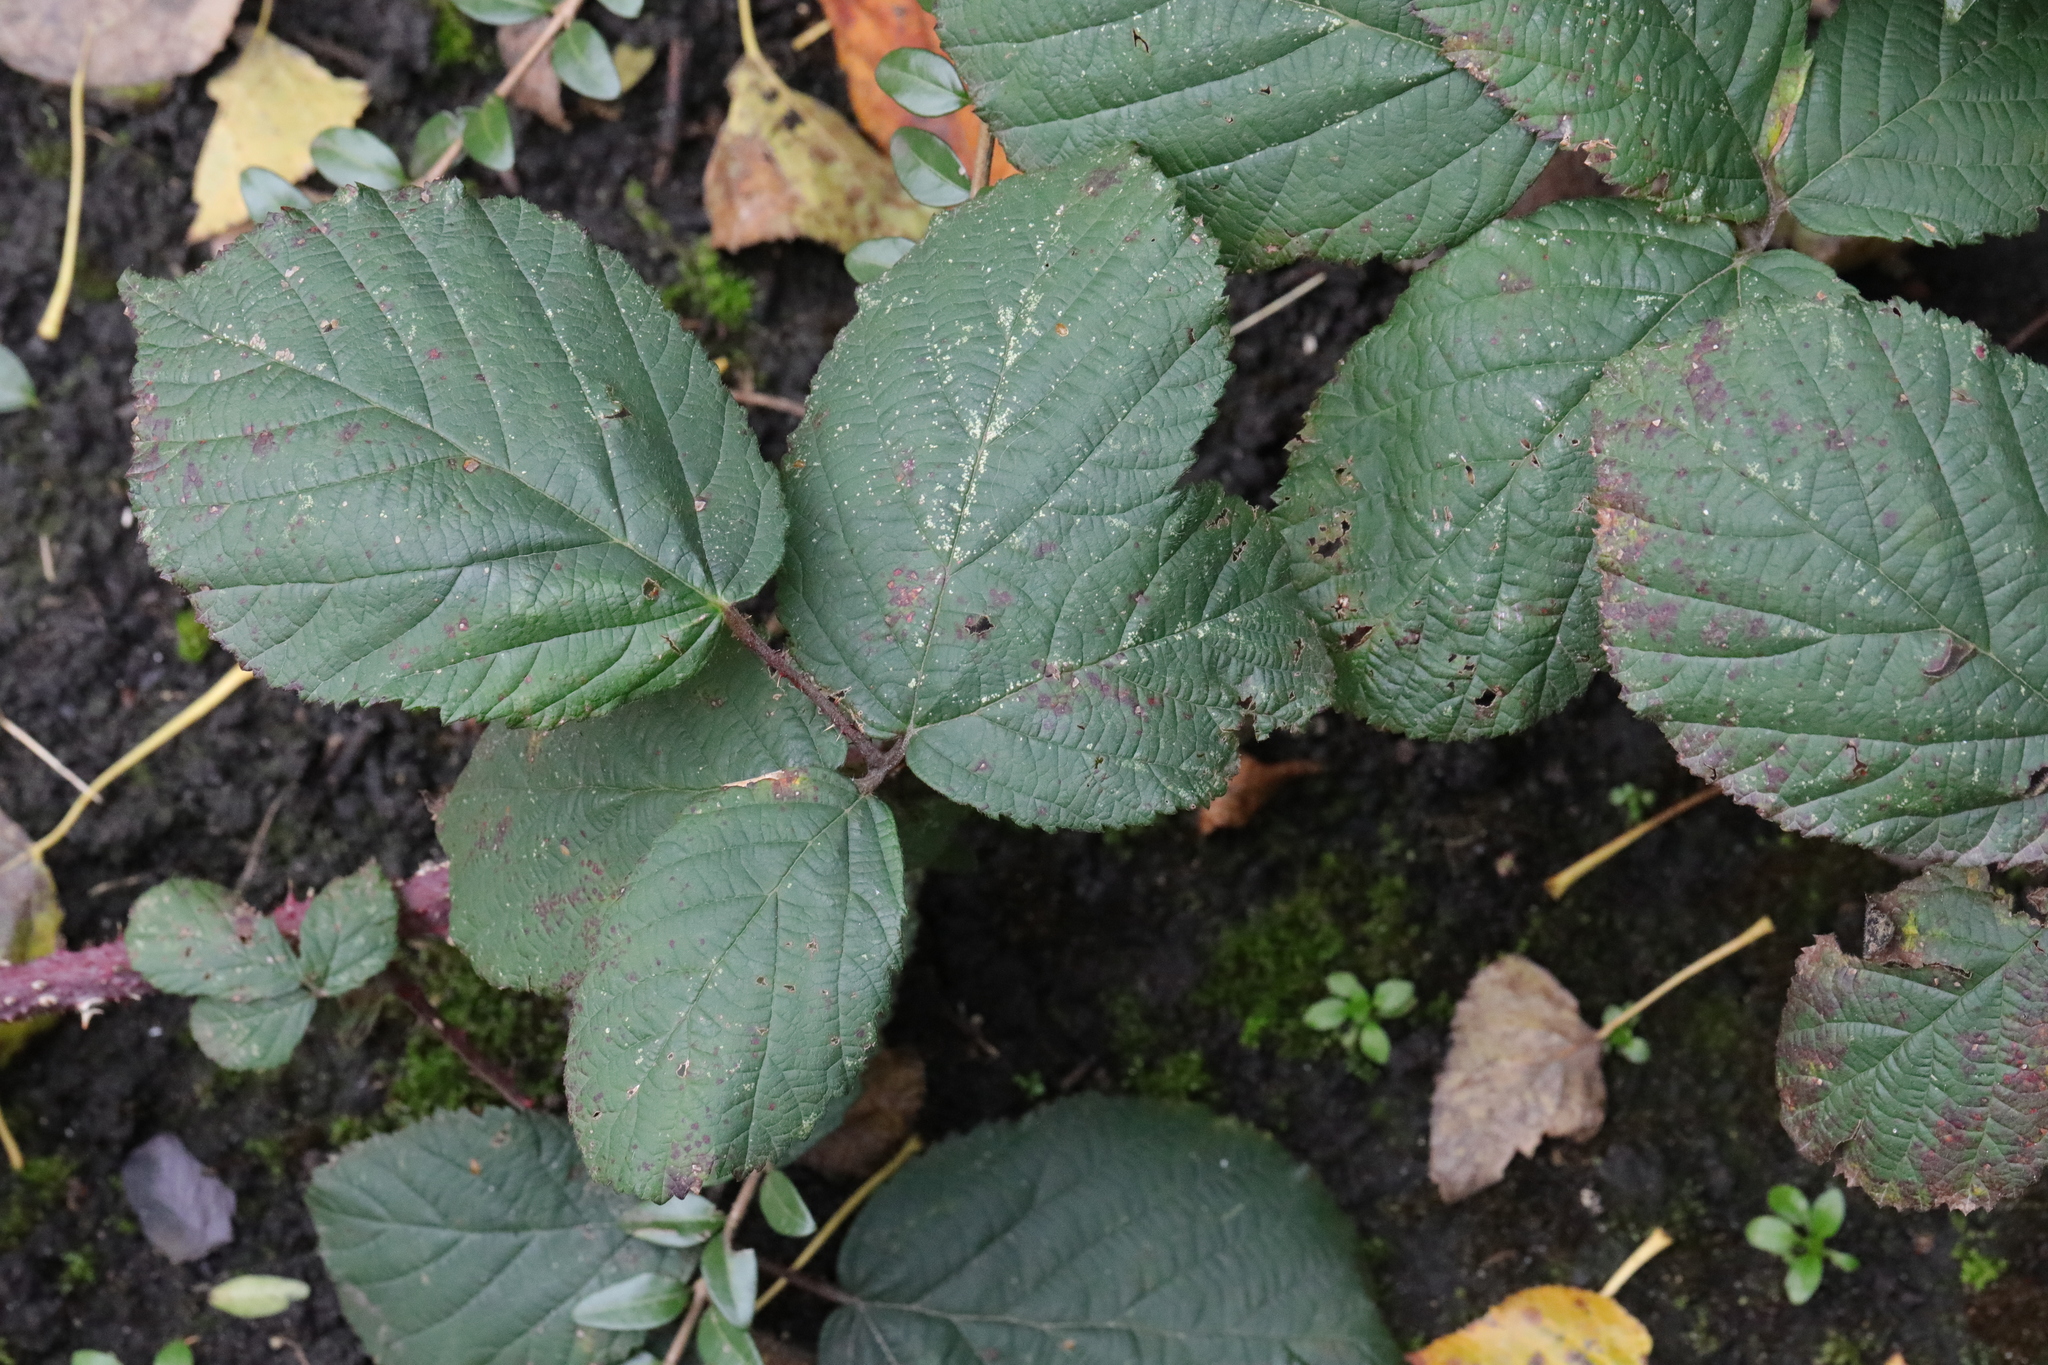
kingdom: Plantae
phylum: Tracheophyta
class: Magnoliopsida
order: Rosales
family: Rosaceae
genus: Rubus
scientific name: Rubus horrefactus
